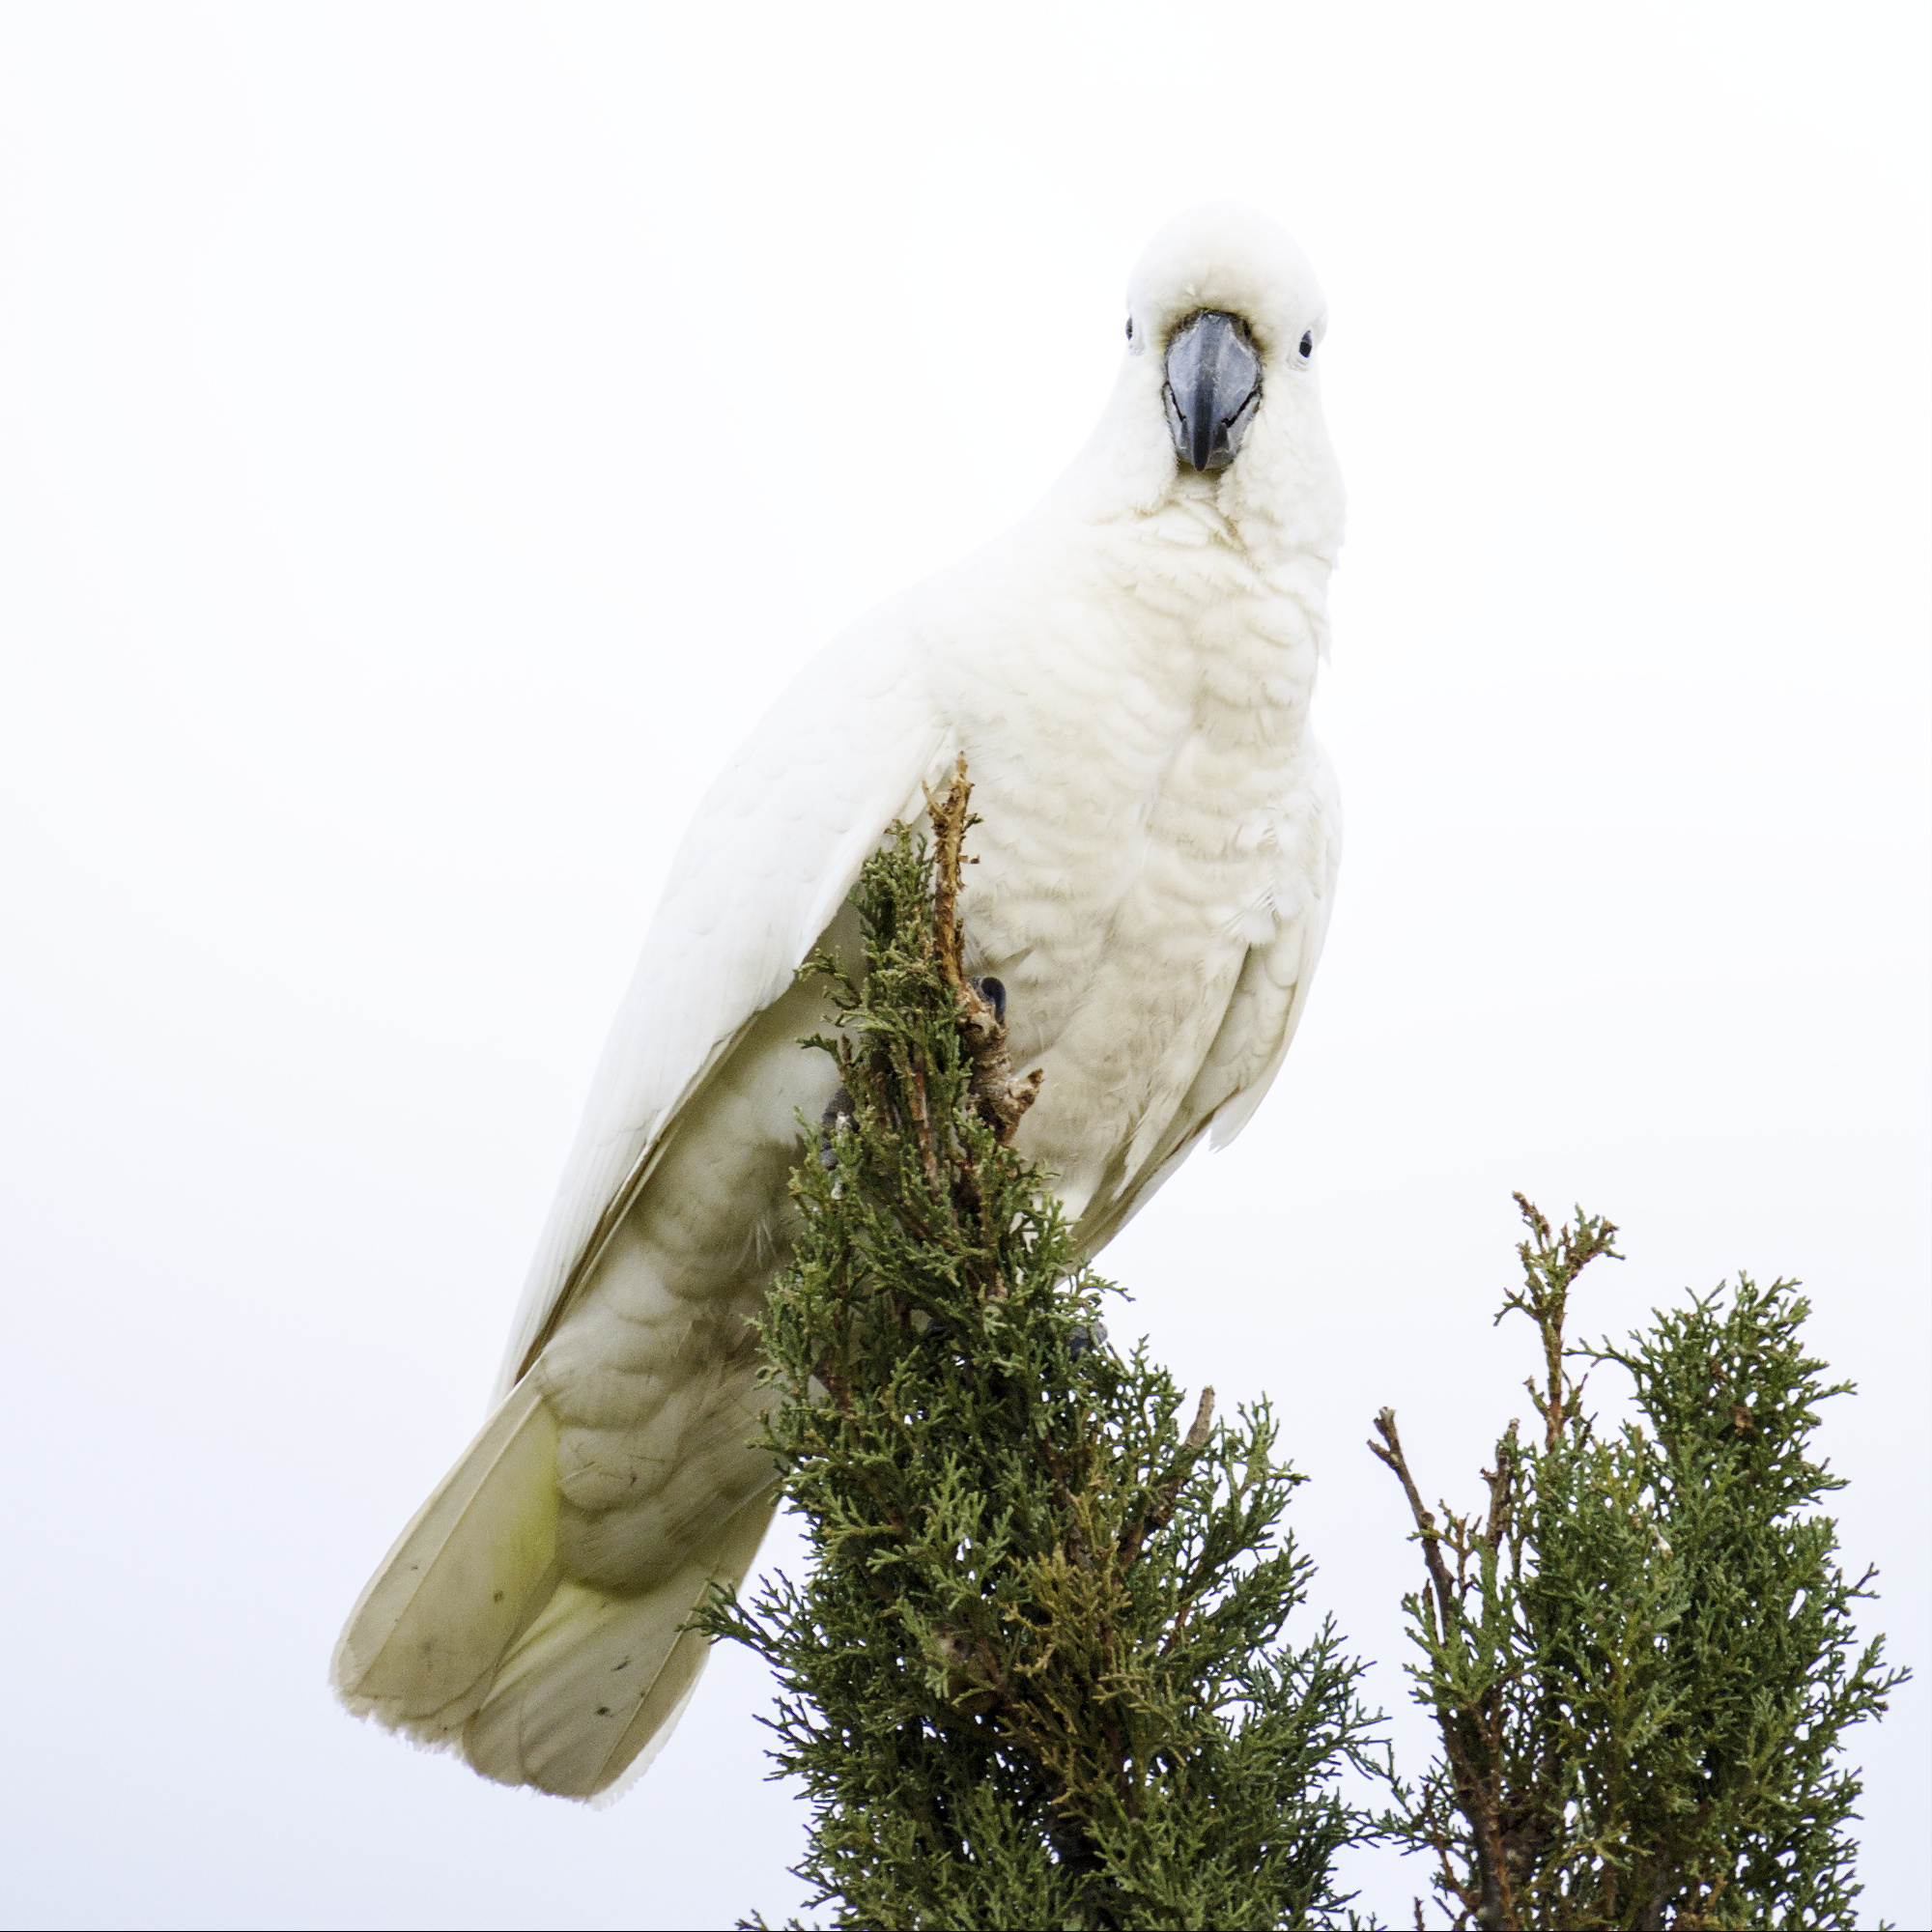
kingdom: Animalia
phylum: Chordata
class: Aves
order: Psittaciformes
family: Psittacidae
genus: Cacatua
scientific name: Cacatua galerita
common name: Sulphur-crested cockatoo
